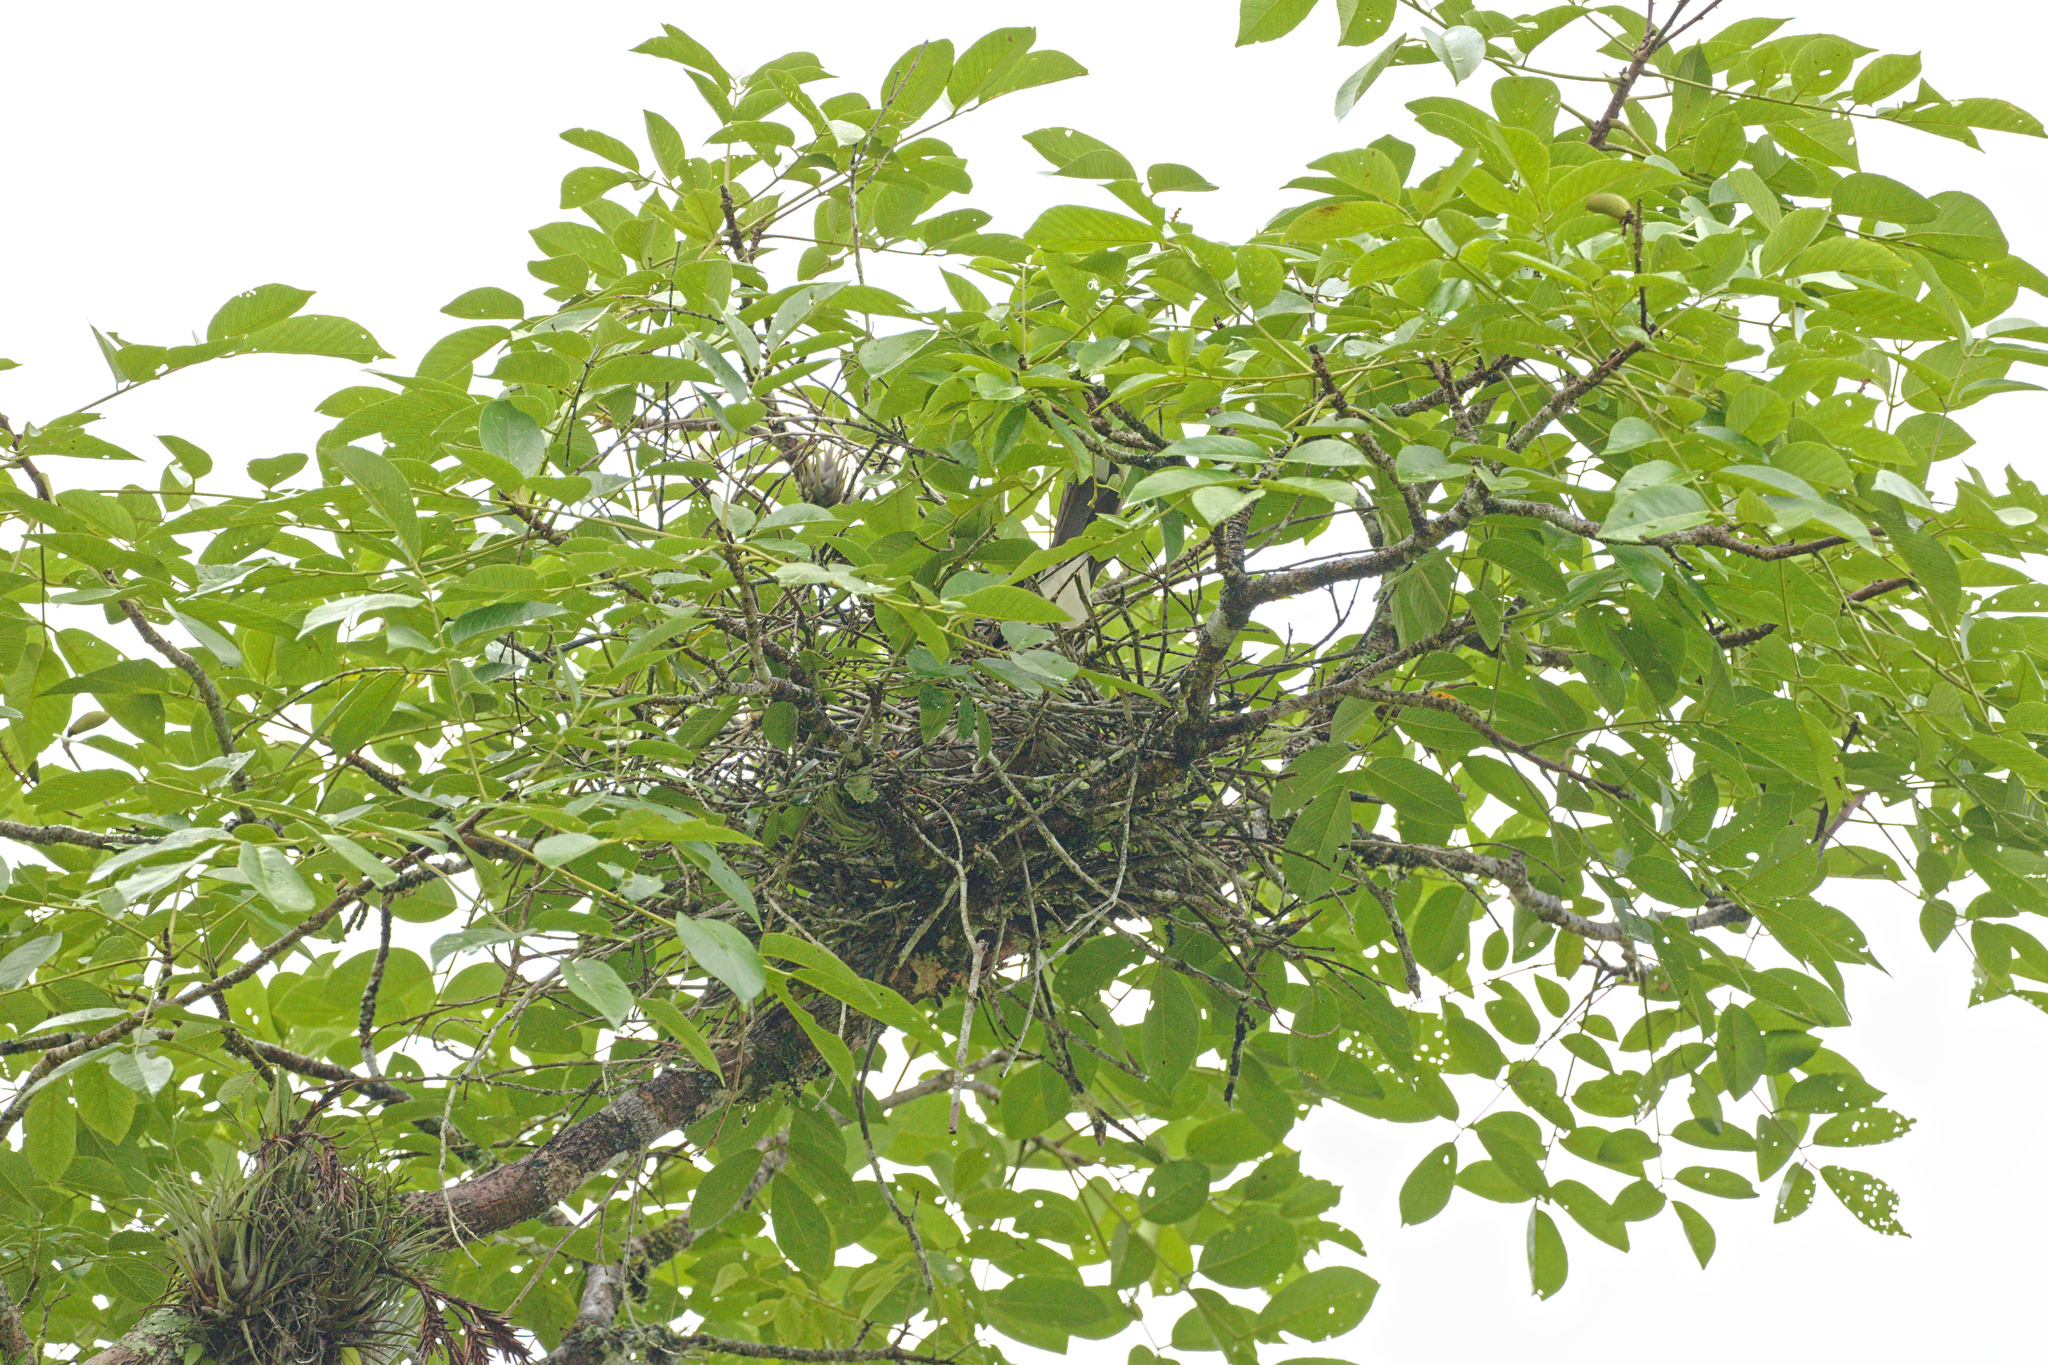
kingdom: Animalia
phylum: Chordata
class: Aves
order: Passeriformes
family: Corvidae
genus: Psilorhinus
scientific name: Psilorhinus morio
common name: Brown jay
